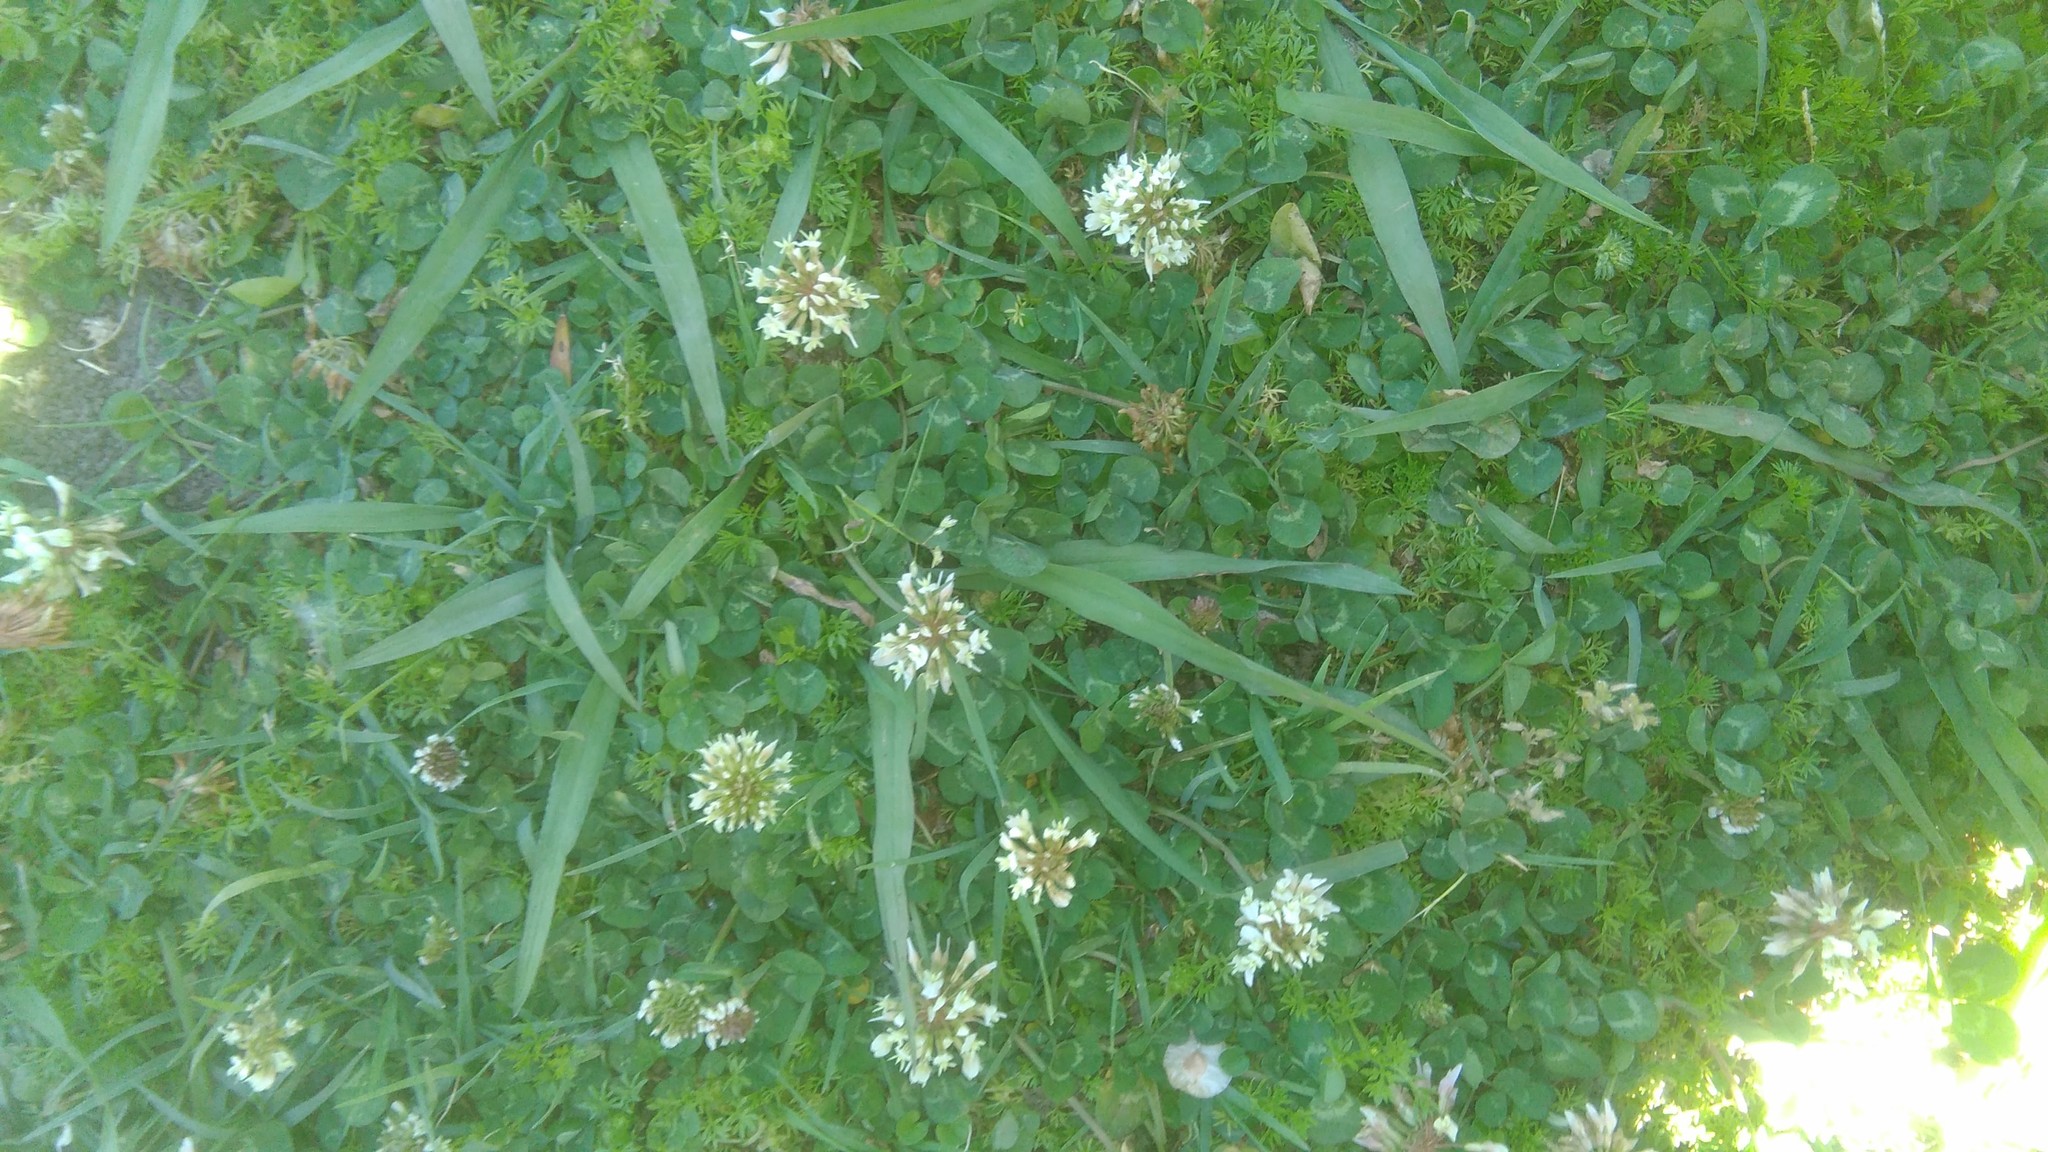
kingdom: Plantae
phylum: Tracheophyta
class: Magnoliopsida
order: Fabales
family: Fabaceae
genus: Trifolium
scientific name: Trifolium repens
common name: White clover
